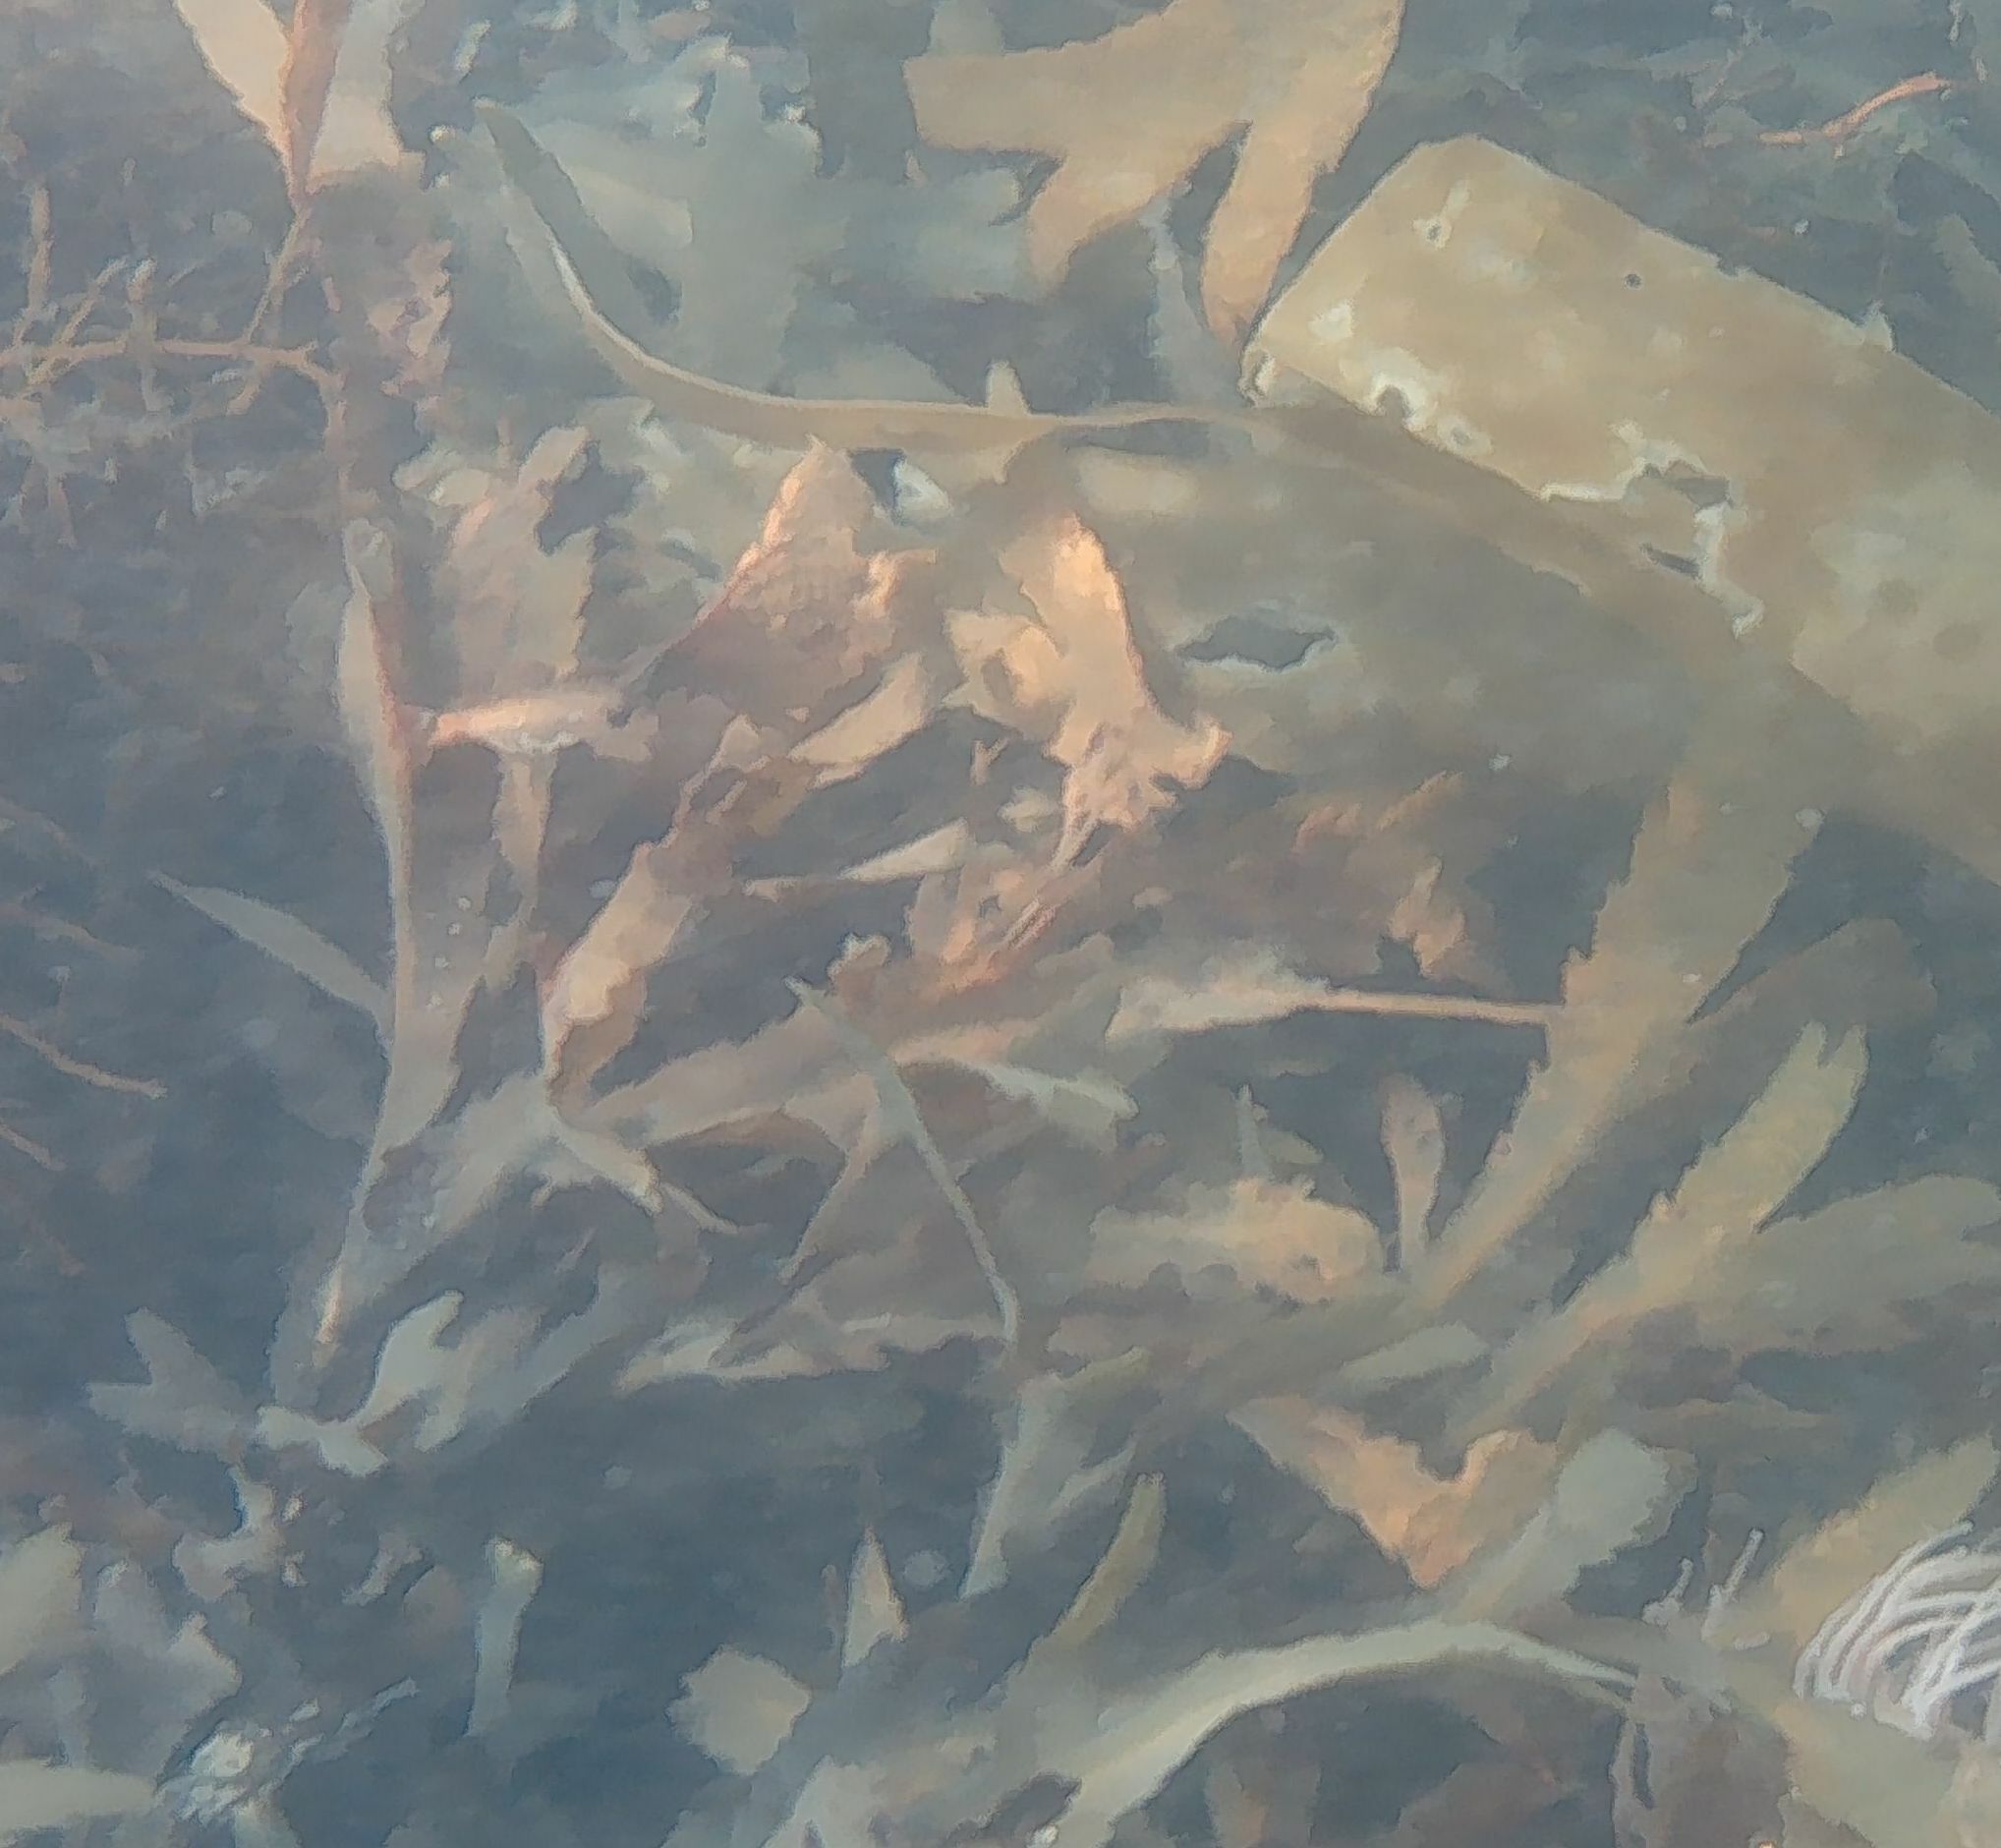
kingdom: Chromista
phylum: Ochrophyta
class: Phaeophyceae
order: Fucales
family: Fucaceae
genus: Fucus
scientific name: Fucus serratus
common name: Toothed wrack
